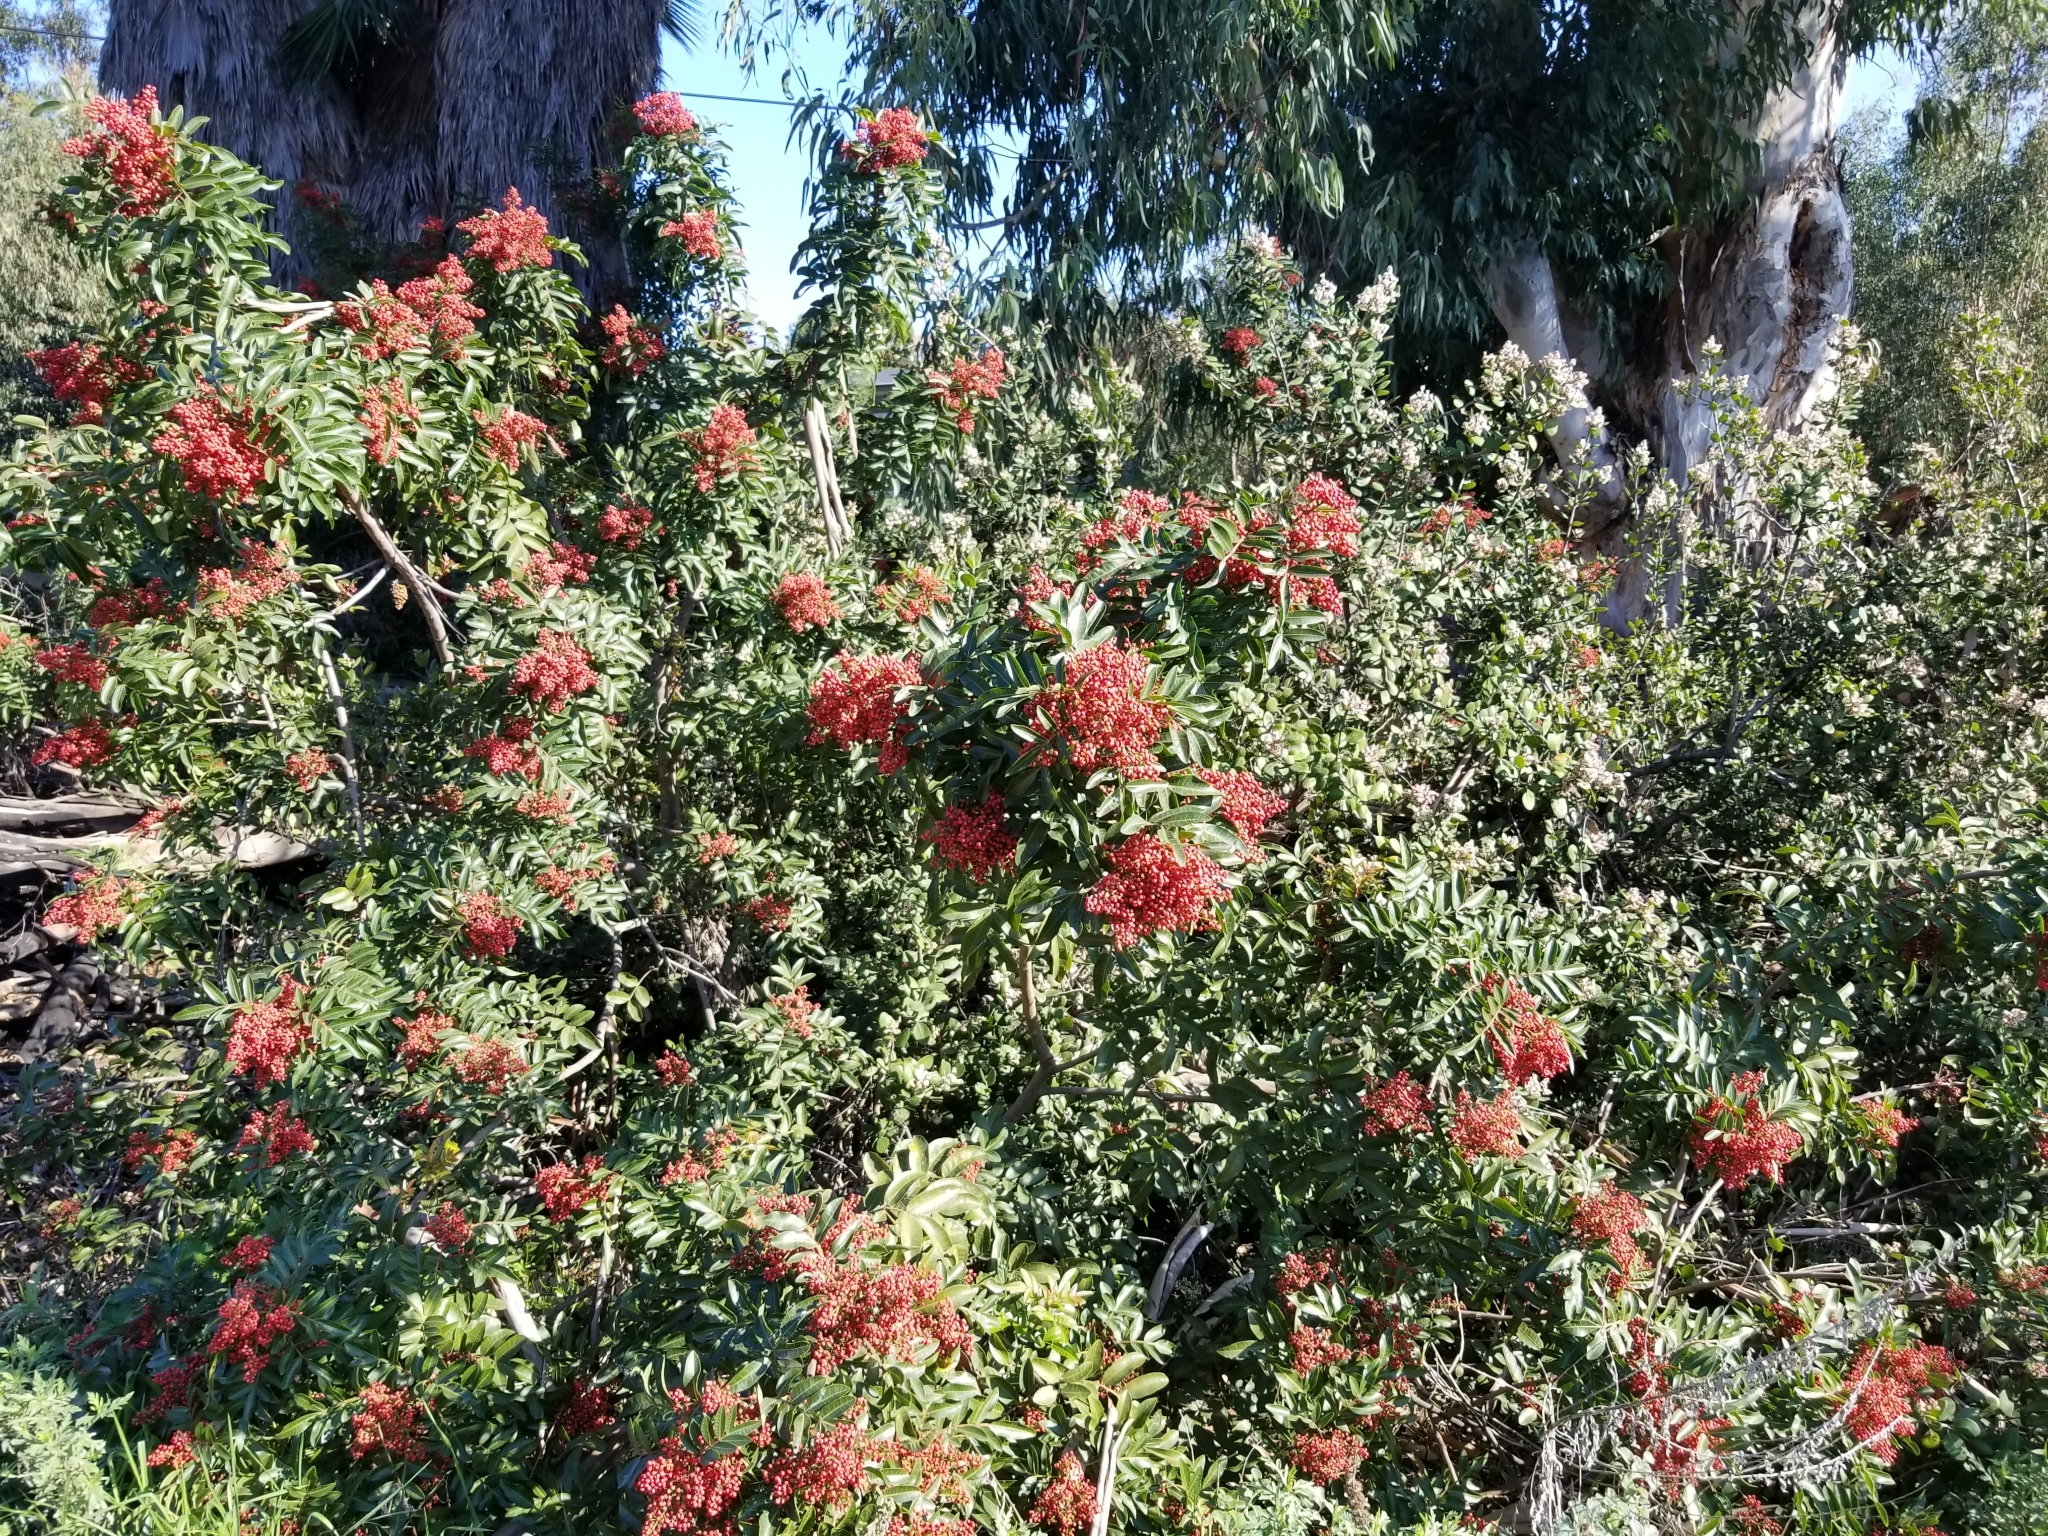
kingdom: Plantae
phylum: Tracheophyta
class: Magnoliopsida
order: Sapindales
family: Anacardiaceae
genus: Schinus
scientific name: Schinus terebinthifolia
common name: Brazilian peppertree
